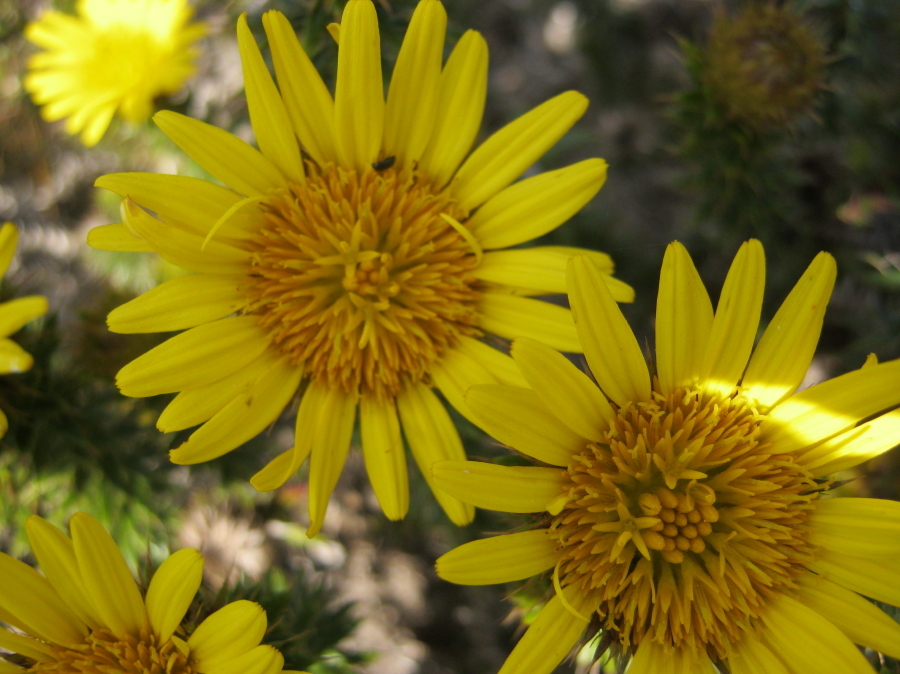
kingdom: Plantae
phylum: Tracheophyta
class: Magnoliopsida
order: Asterales
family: Asteraceae
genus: Cullumia
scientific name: Cullumia carlinoides
